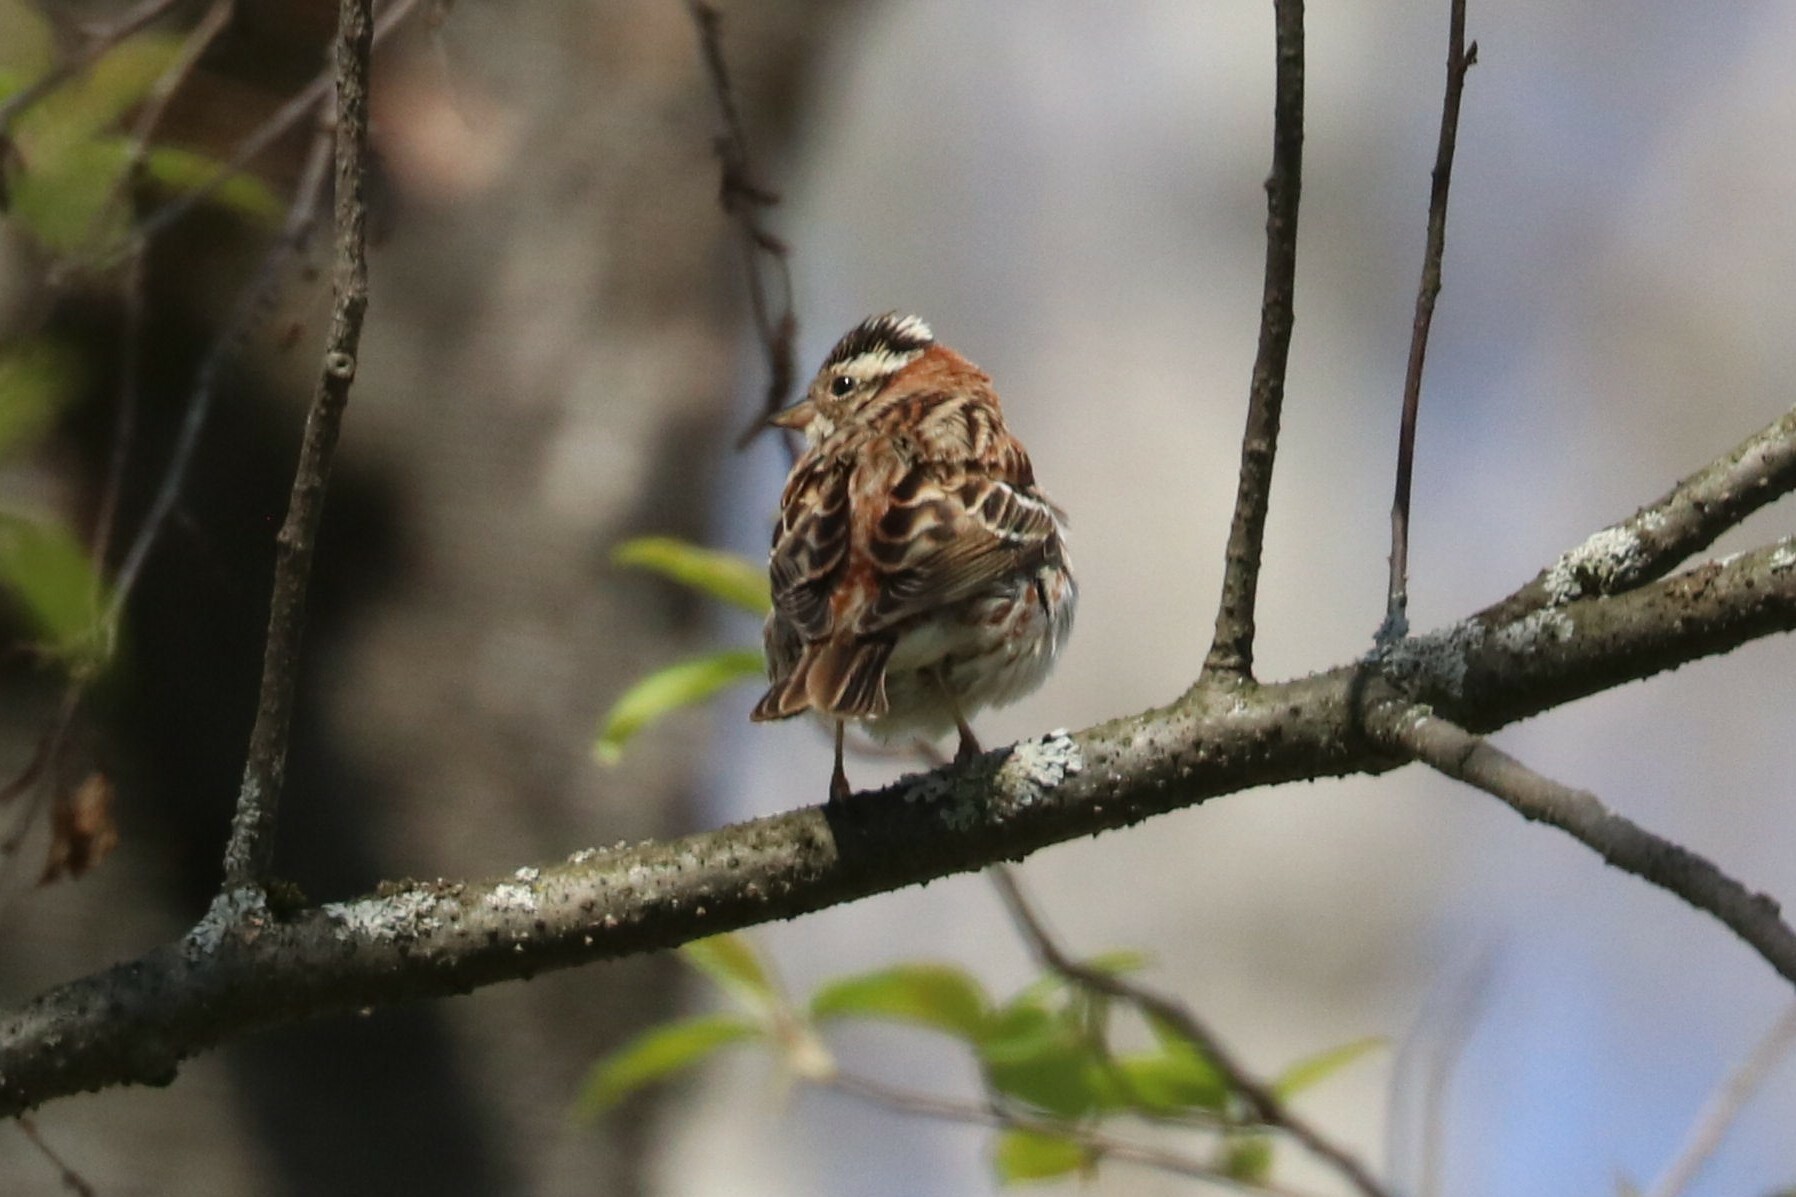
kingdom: Animalia
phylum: Chordata
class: Aves
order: Passeriformes
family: Emberizidae
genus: Emberiza
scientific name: Emberiza rustica
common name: Rustic bunting
